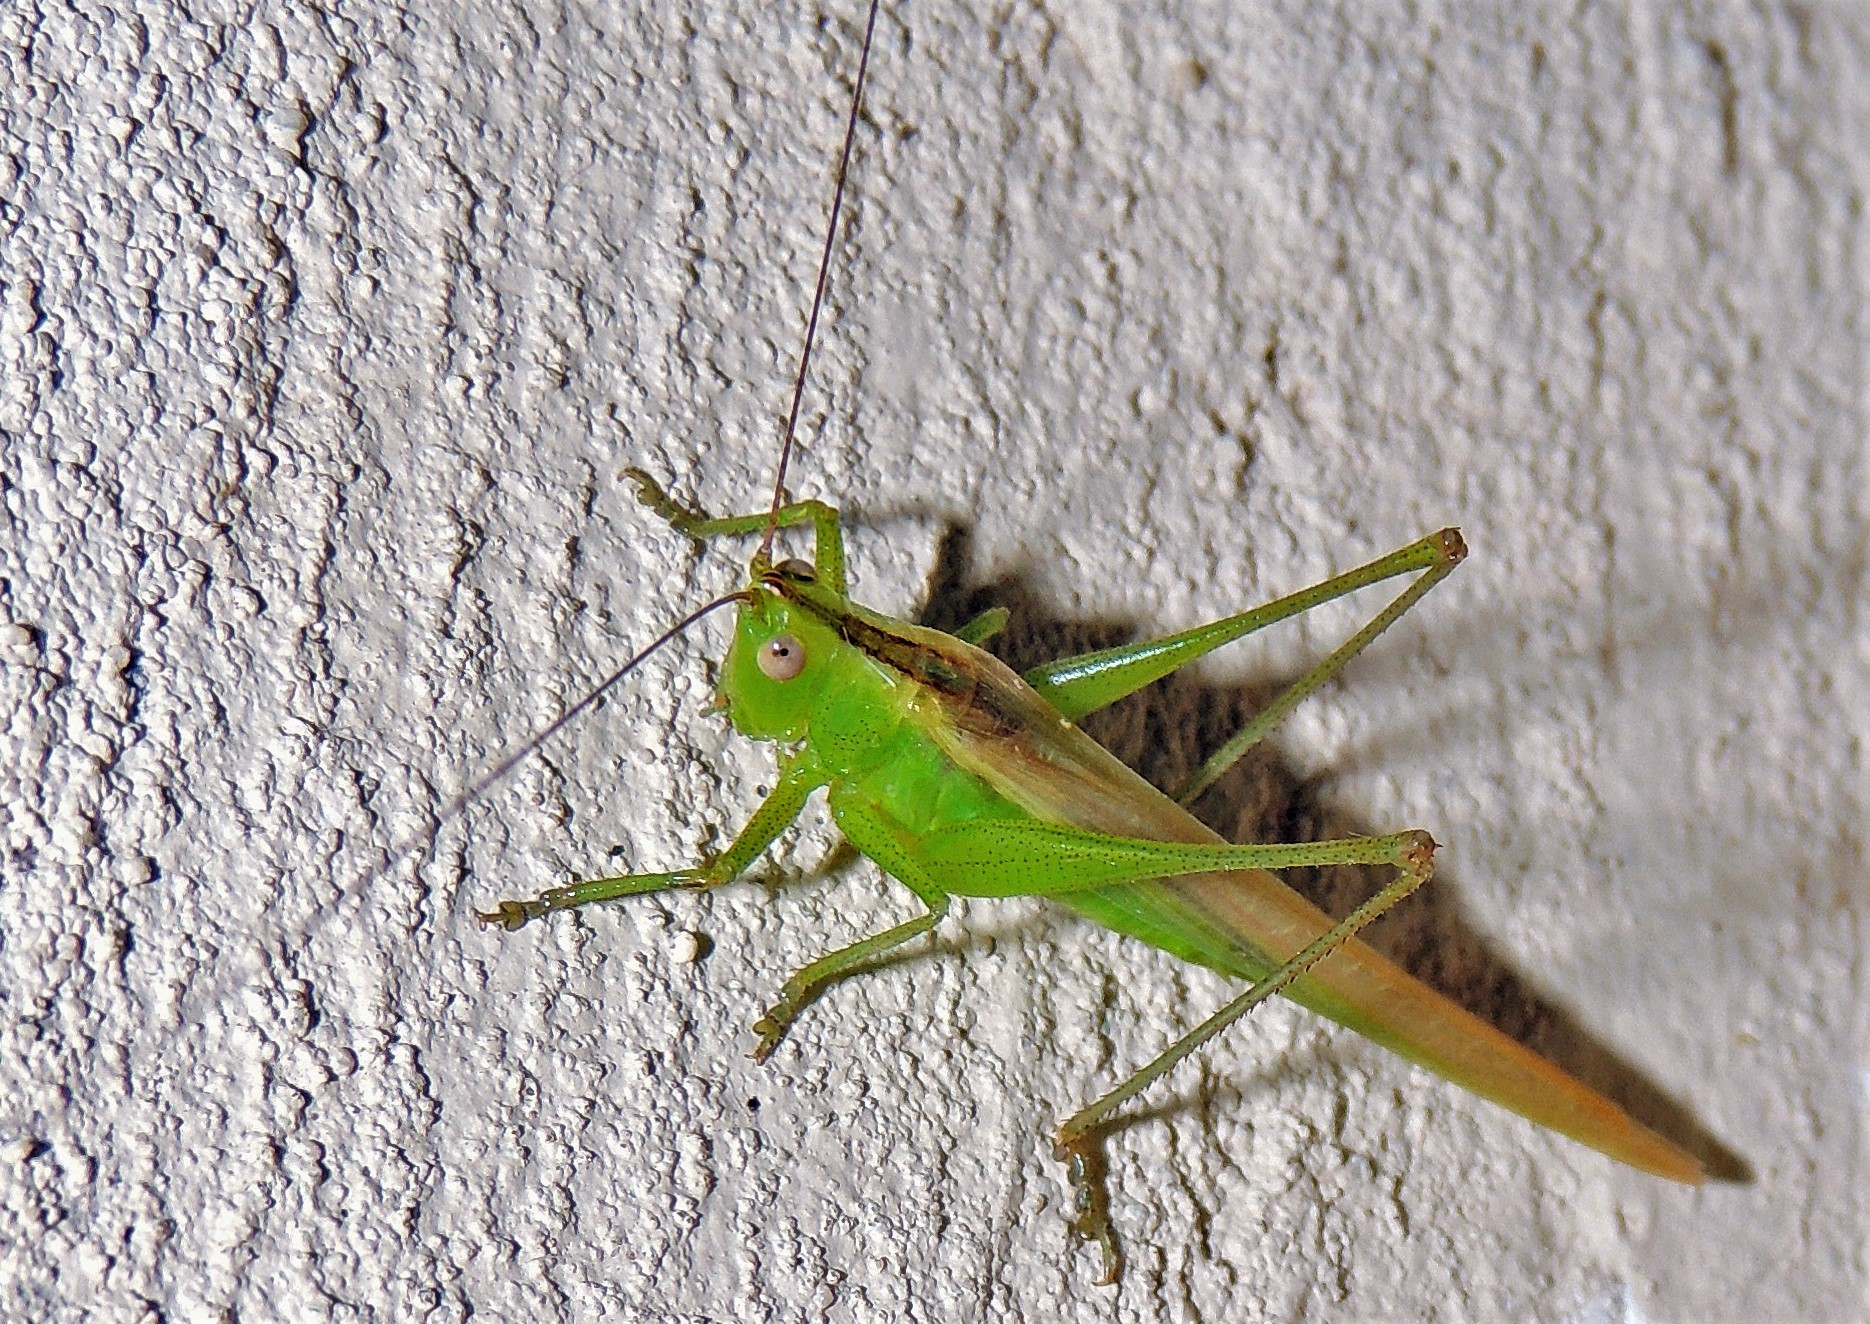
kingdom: Animalia
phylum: Arthropoda
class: Insecta
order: Orthoptera
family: Tettigoniidae
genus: Conocephalus
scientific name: Conocephalus longipes
